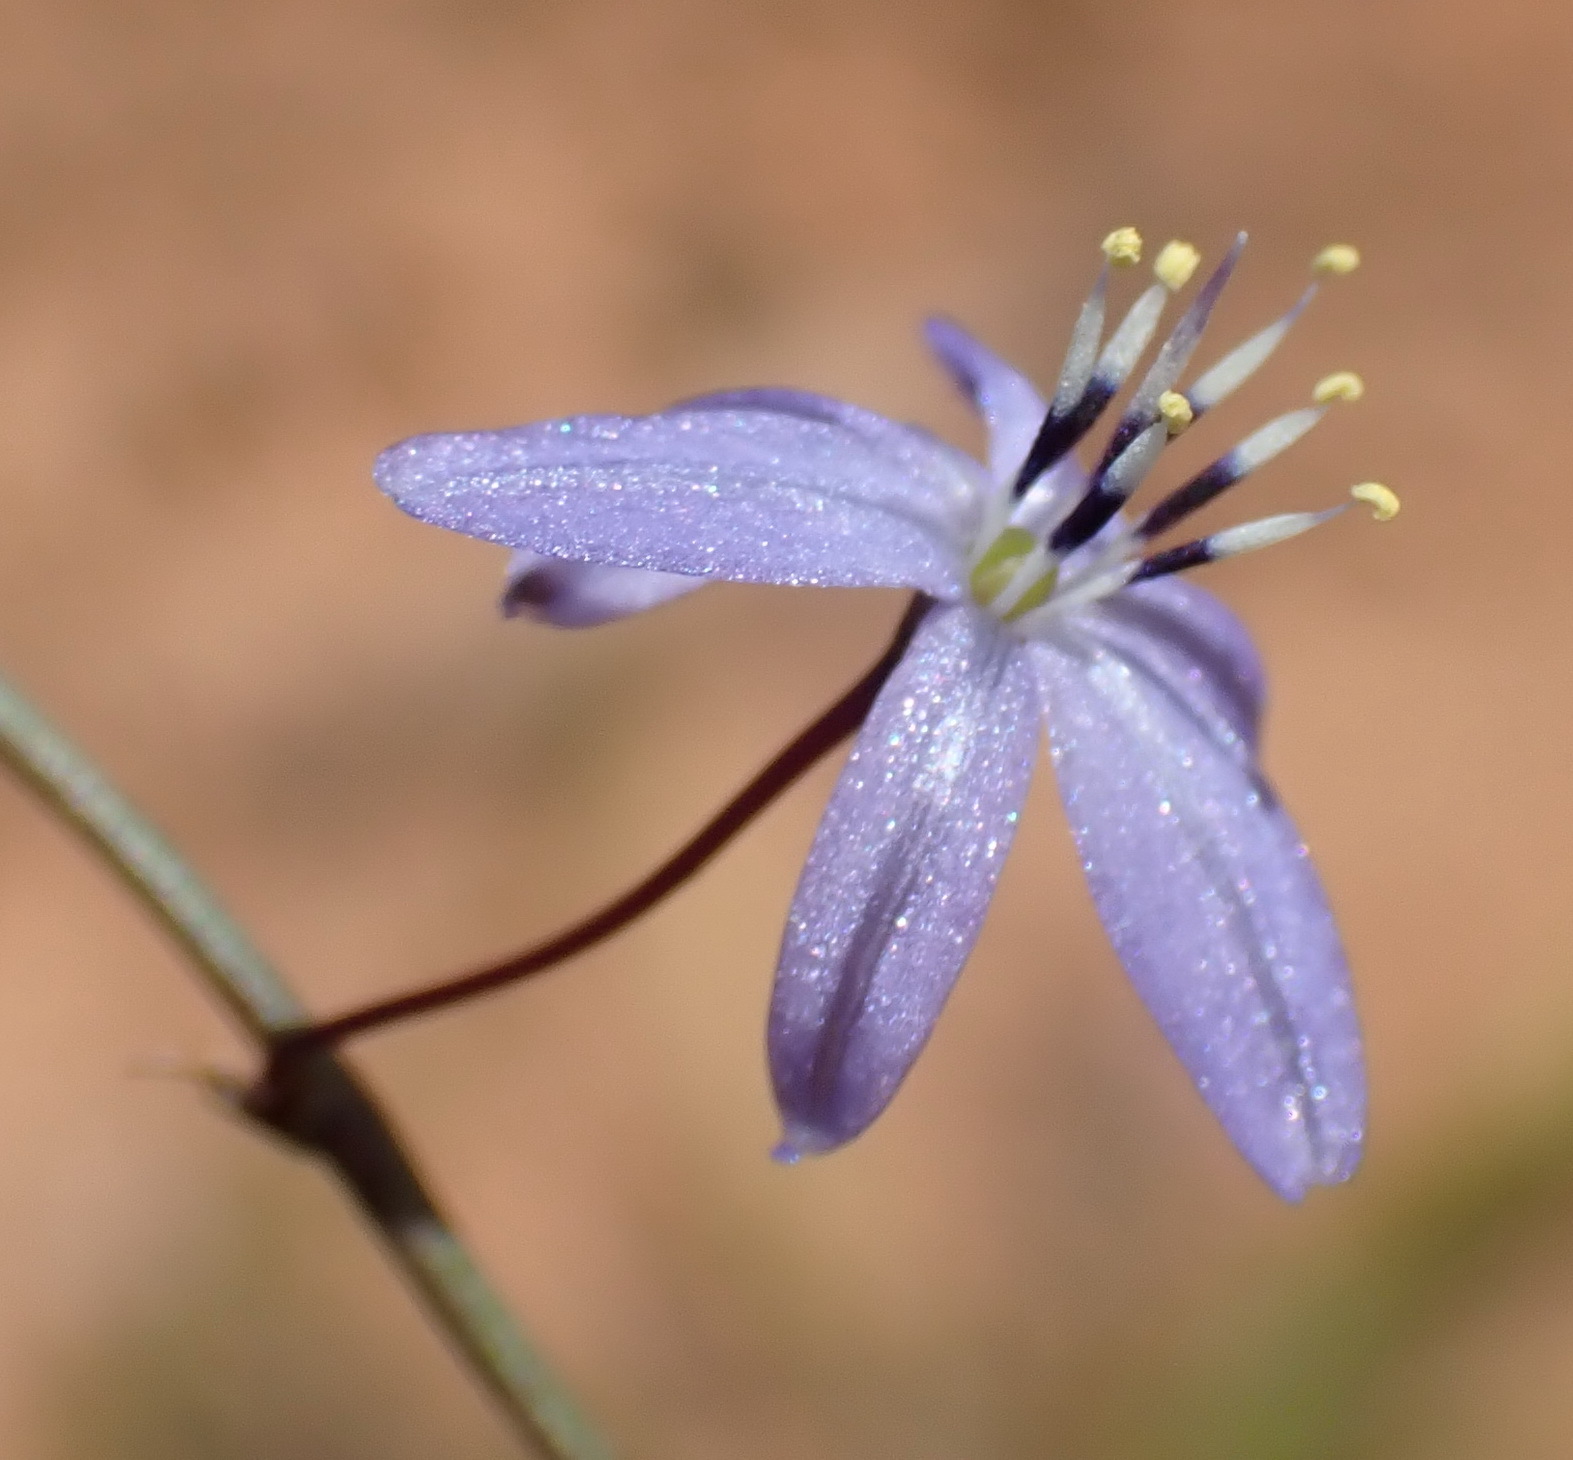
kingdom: Plantae
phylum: Tracheophyta
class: Liliopsida
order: Asparagales
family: Asphodelaceae
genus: Caesia
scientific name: Caesia contorta
